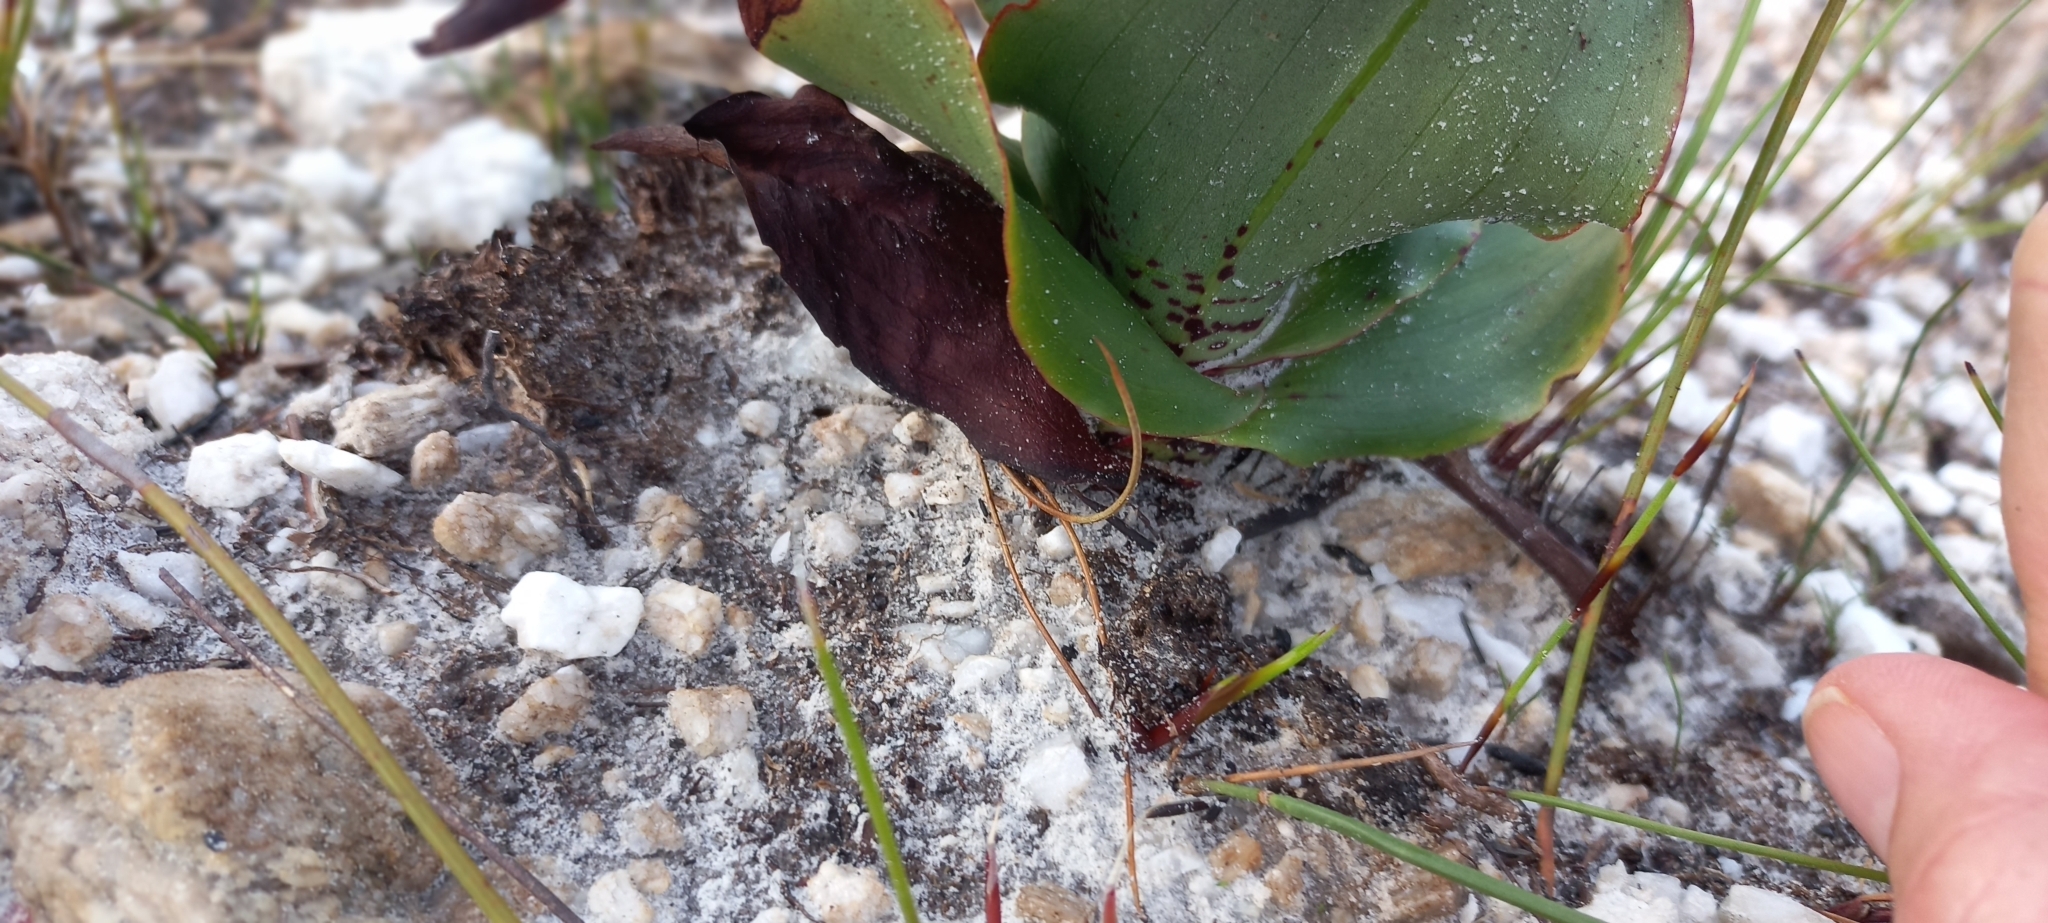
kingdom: Plantae
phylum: Tracheophyta
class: Liliopsida
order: Asparagales
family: Orchidaceae
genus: Disa
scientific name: Disa cornuta
